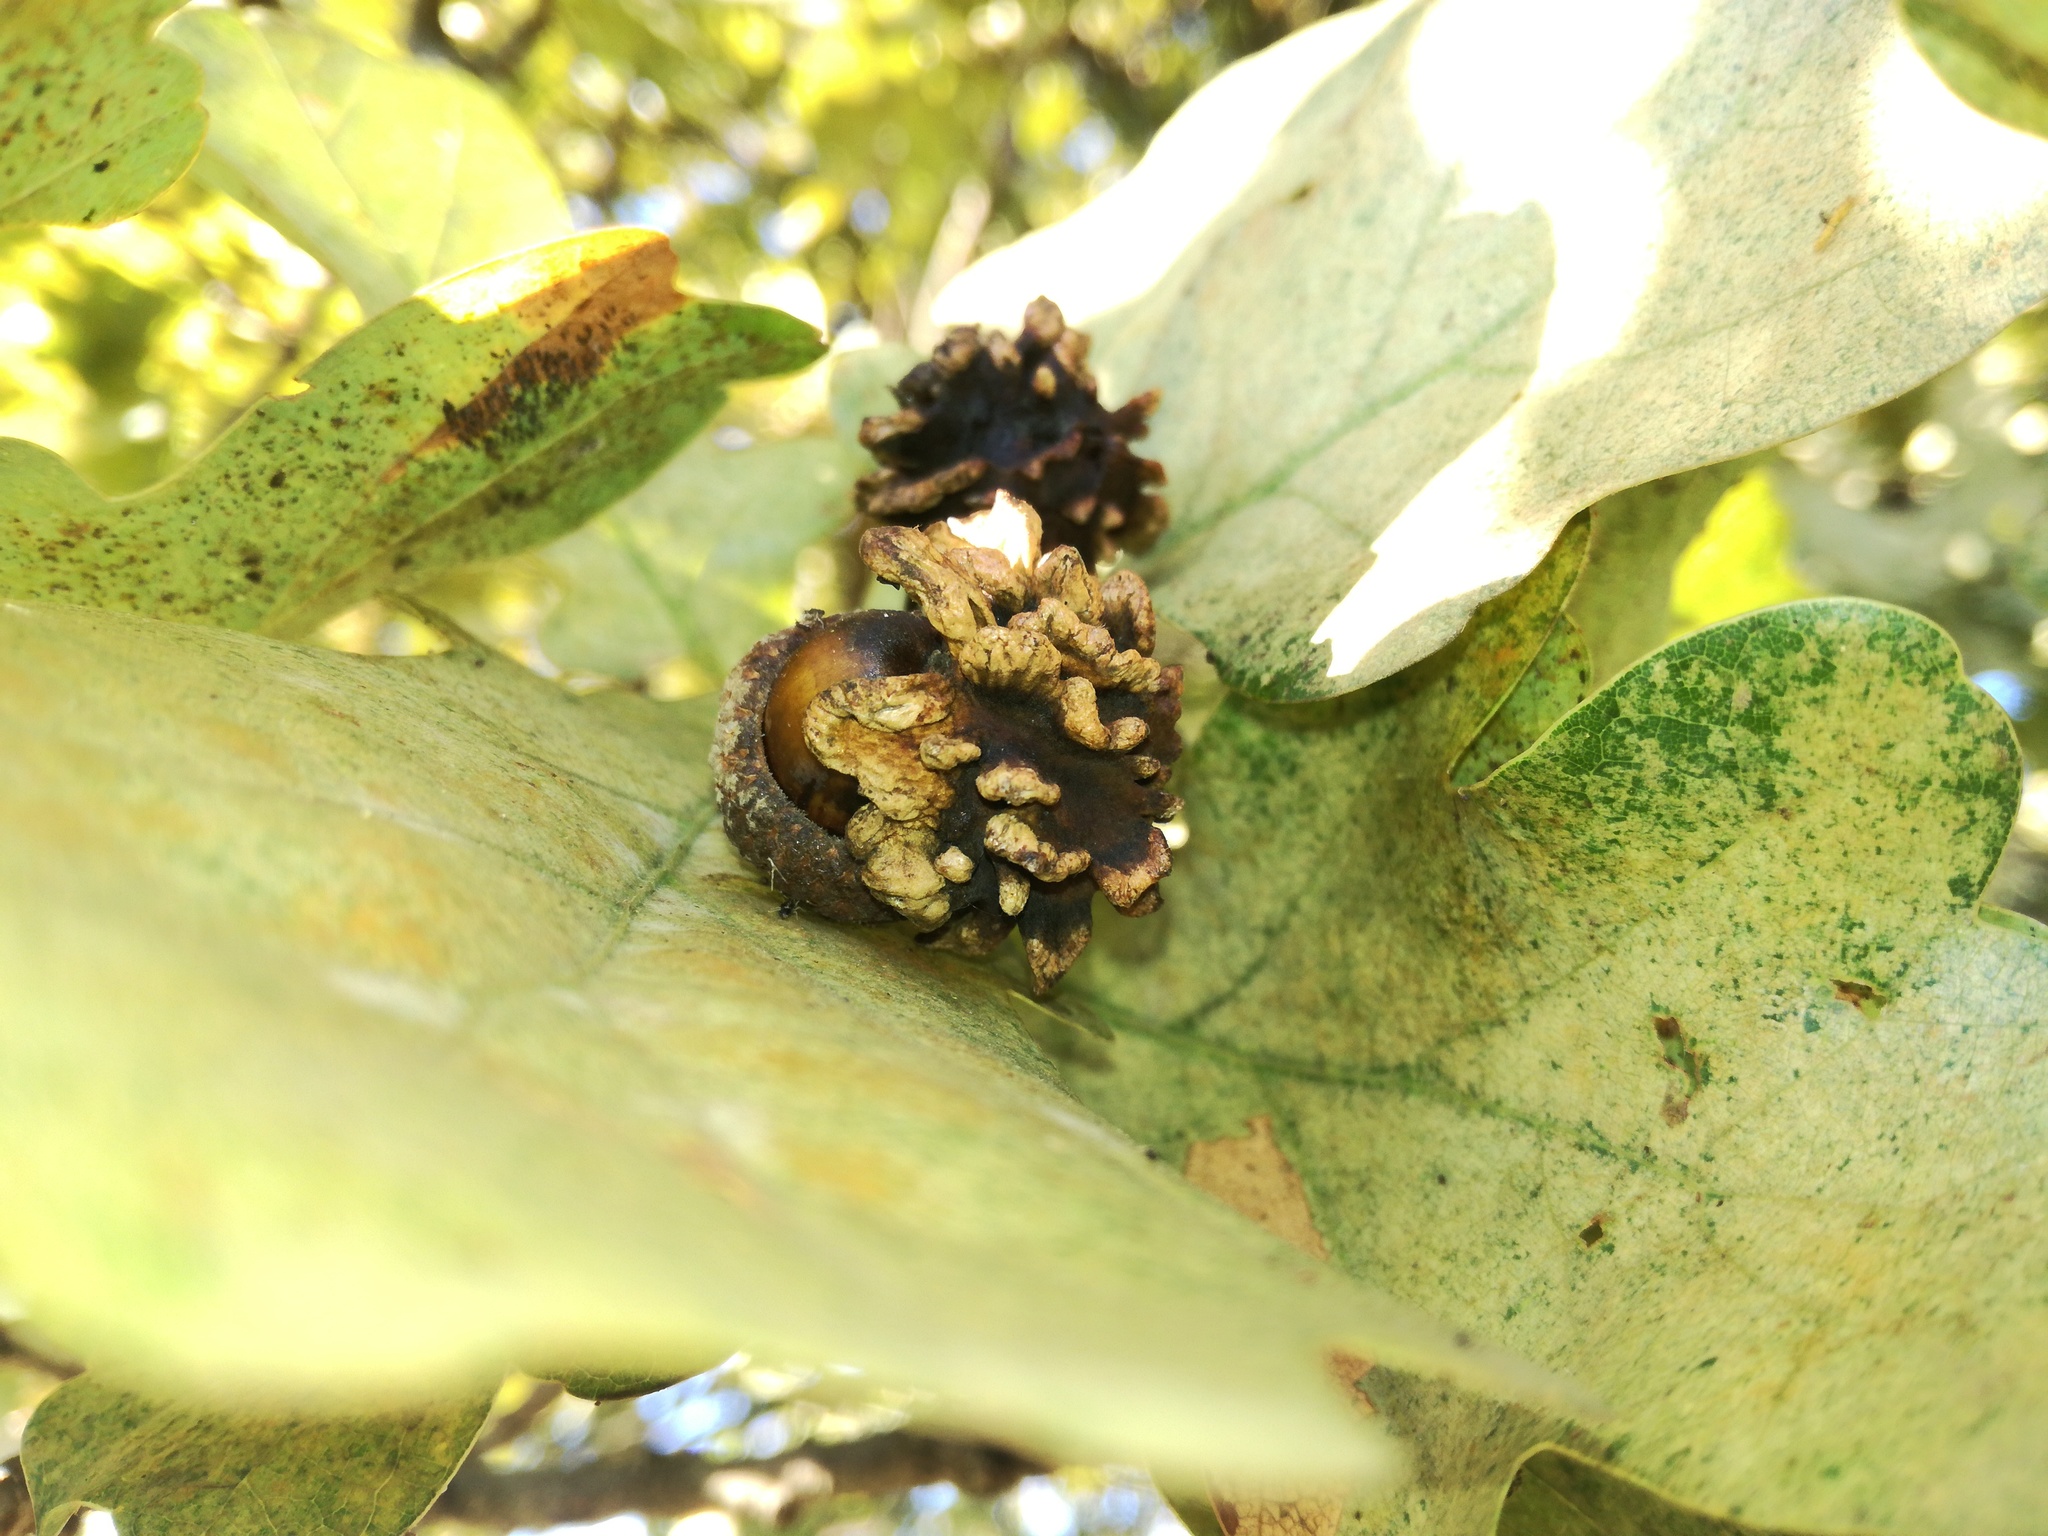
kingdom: Animalia
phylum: Arthropoda
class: Insecta
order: Hymenoptera
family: Cynipidae
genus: Andricus
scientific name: Andricus quercuscalicis
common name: Knopper gall
